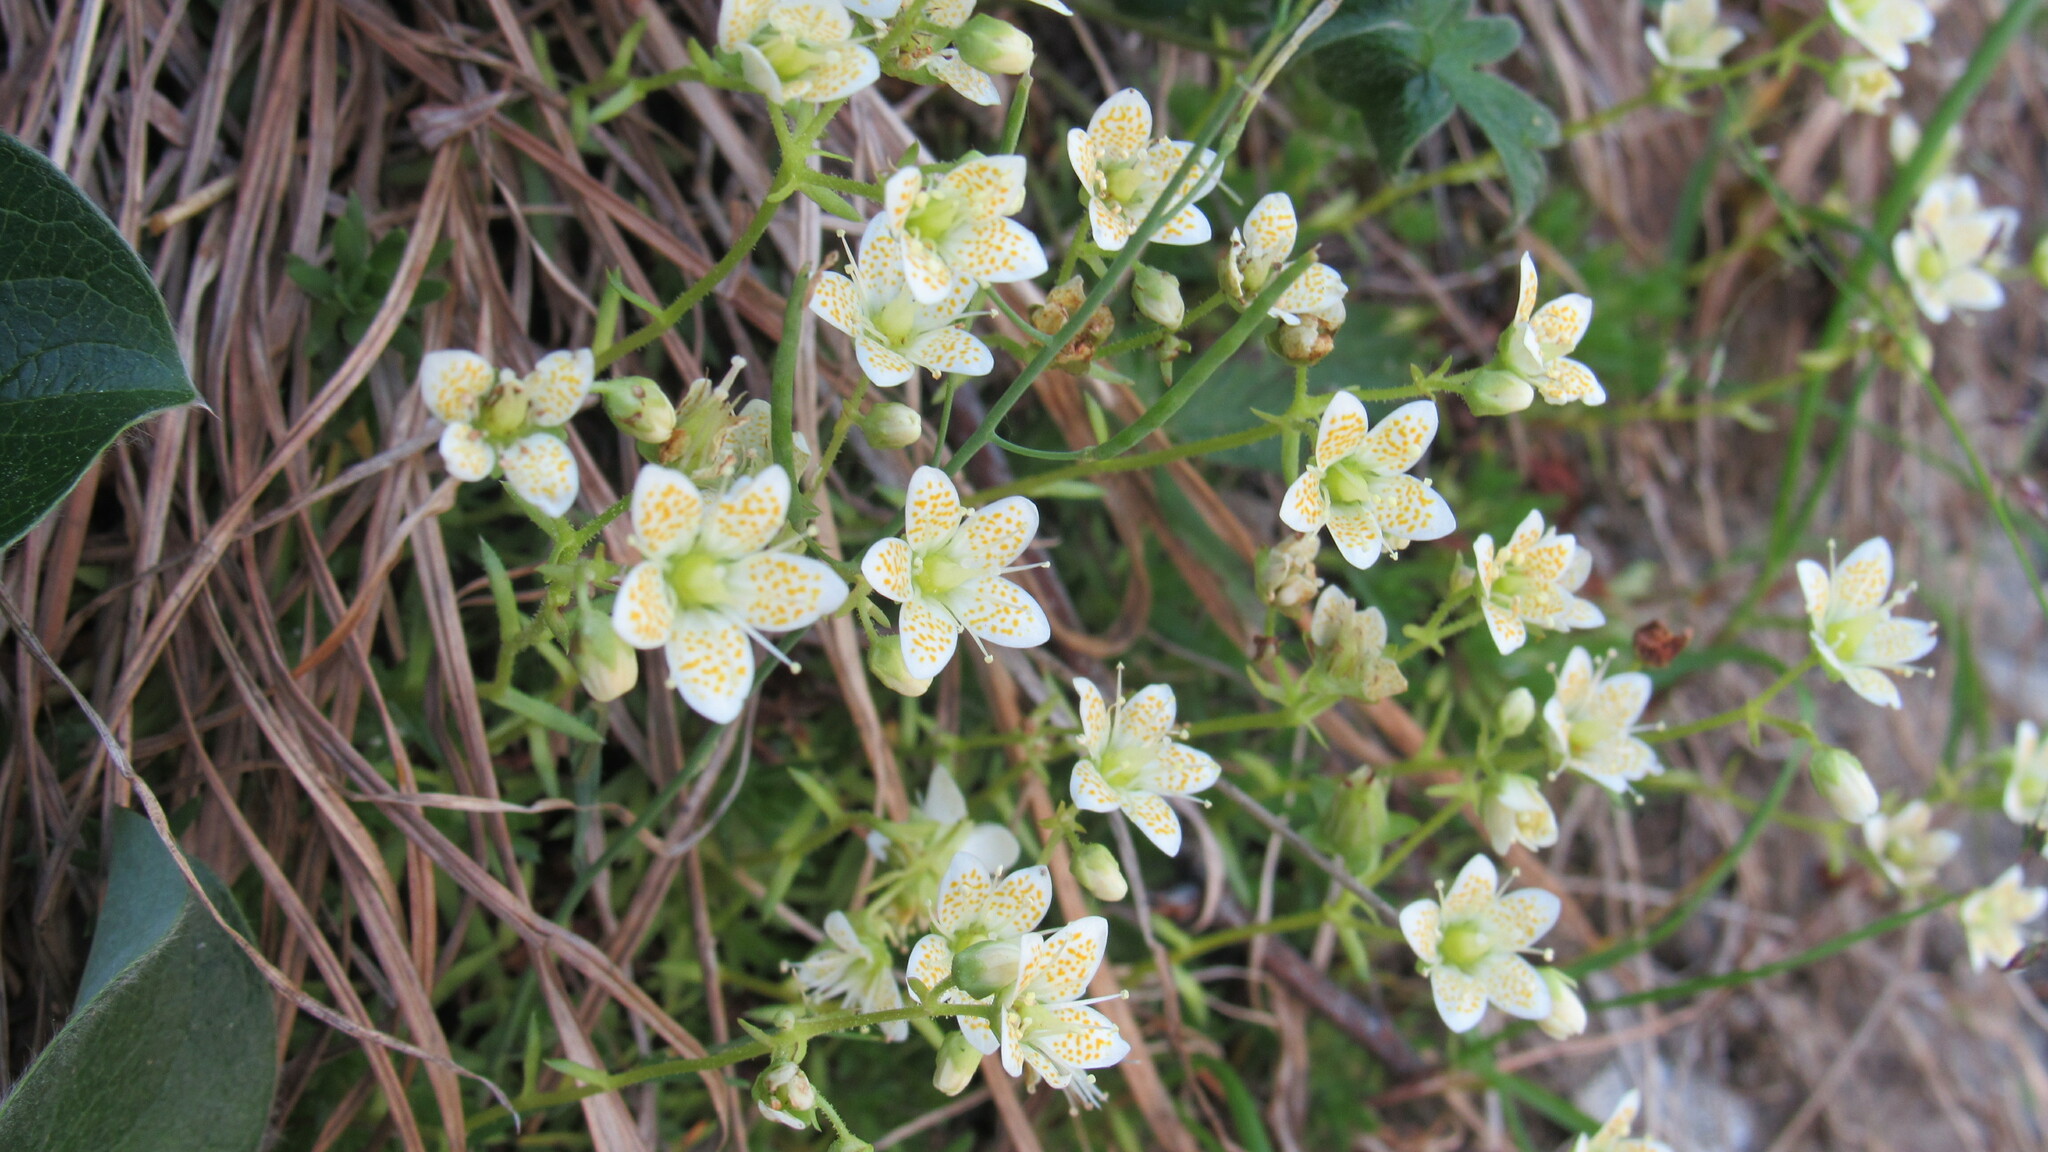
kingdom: Plantae
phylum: Tracheophyta
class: Magnoliopsida
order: Saxifragales
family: Saxifragaceae
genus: Saxifraga
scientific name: Saxifraga bronchialis
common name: Matted saxifrage
